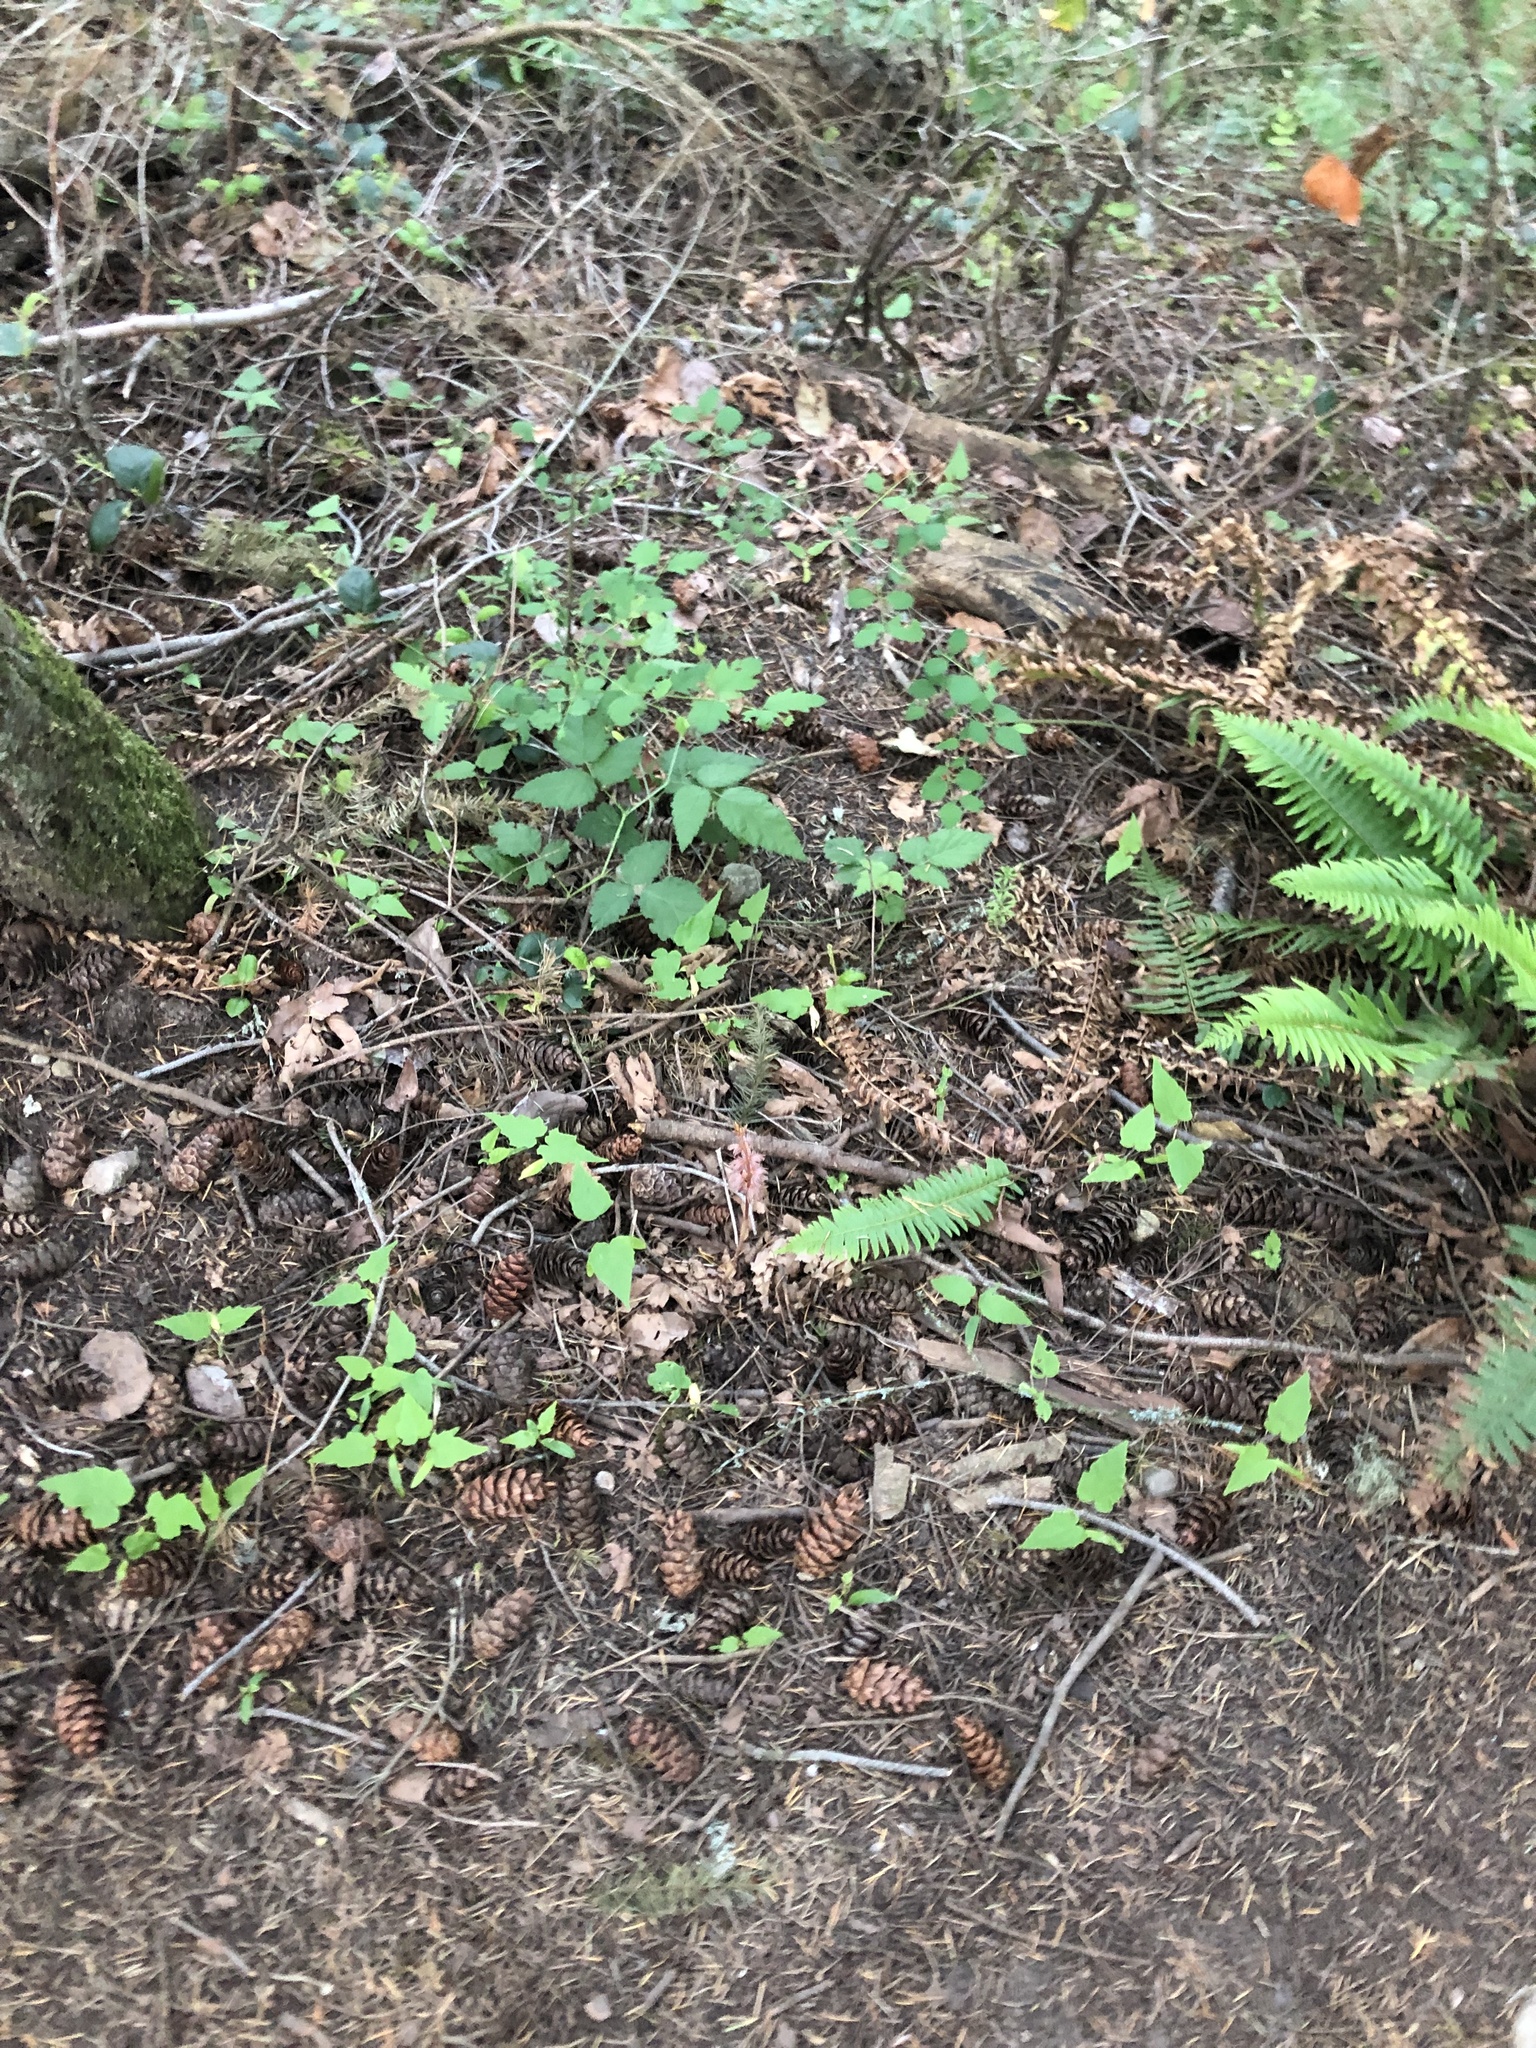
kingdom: Plantae
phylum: Tracheophyta
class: Liliopsida
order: Asparagales
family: Orchidaceae
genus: Corallorhiza
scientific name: Corallorhiza striata
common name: Hooded coralroot
